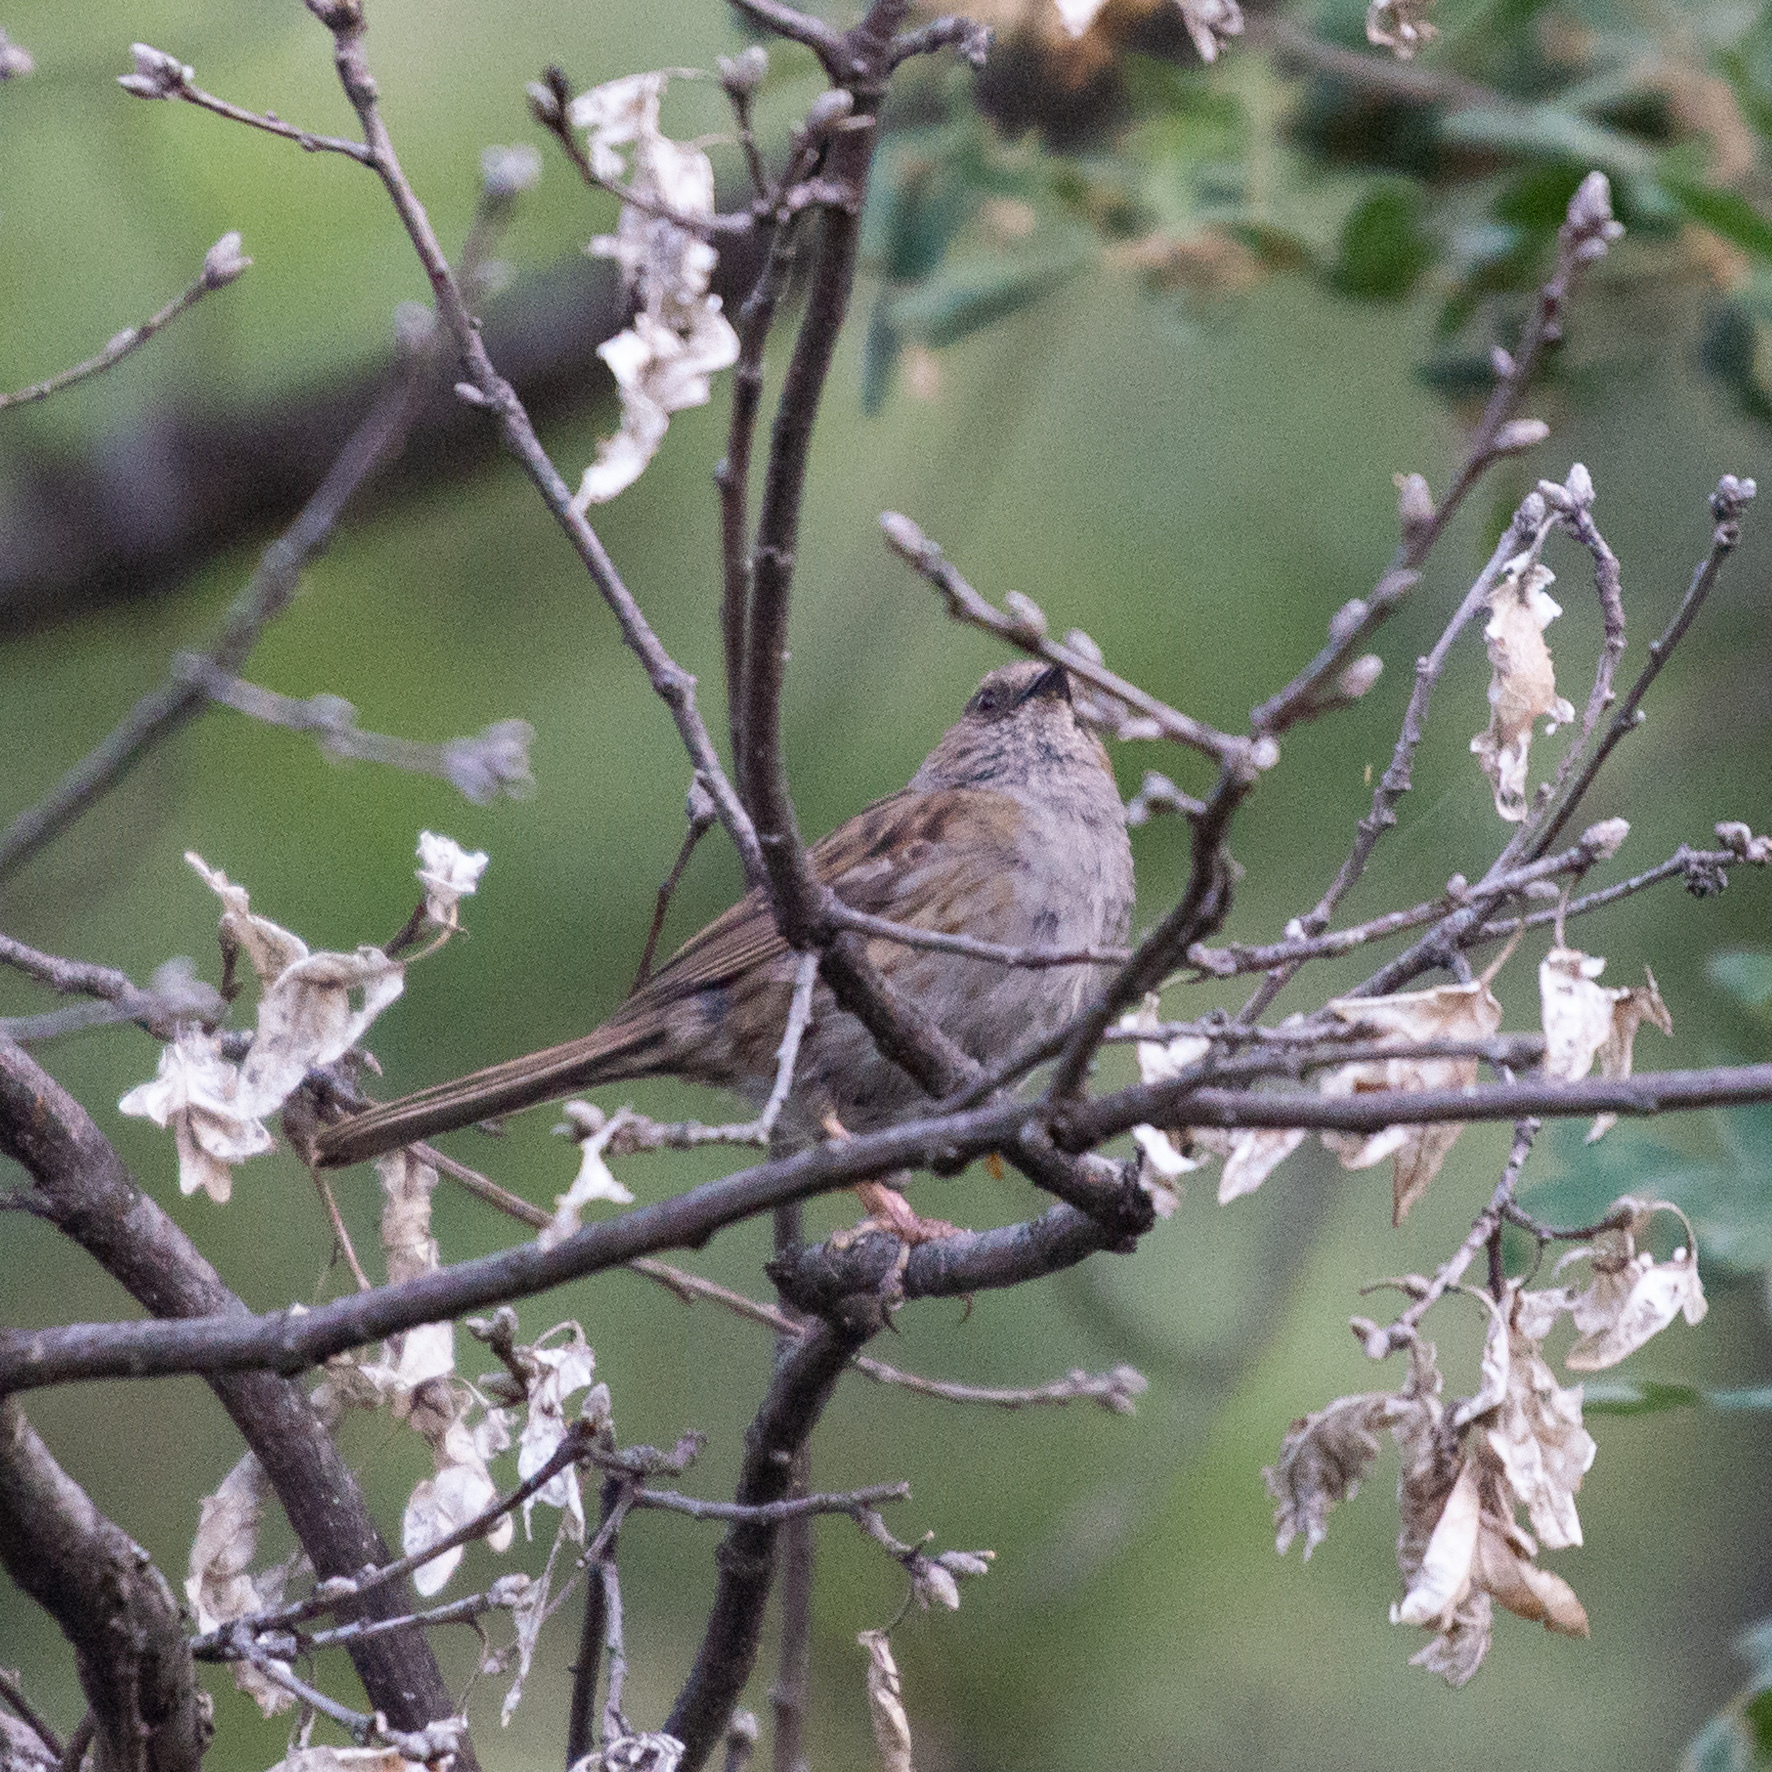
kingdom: Animalia
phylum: Chordata
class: Aves
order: Passeriformes
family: Prunellidae
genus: Prunella
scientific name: Prunella modularis
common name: Dunnock
